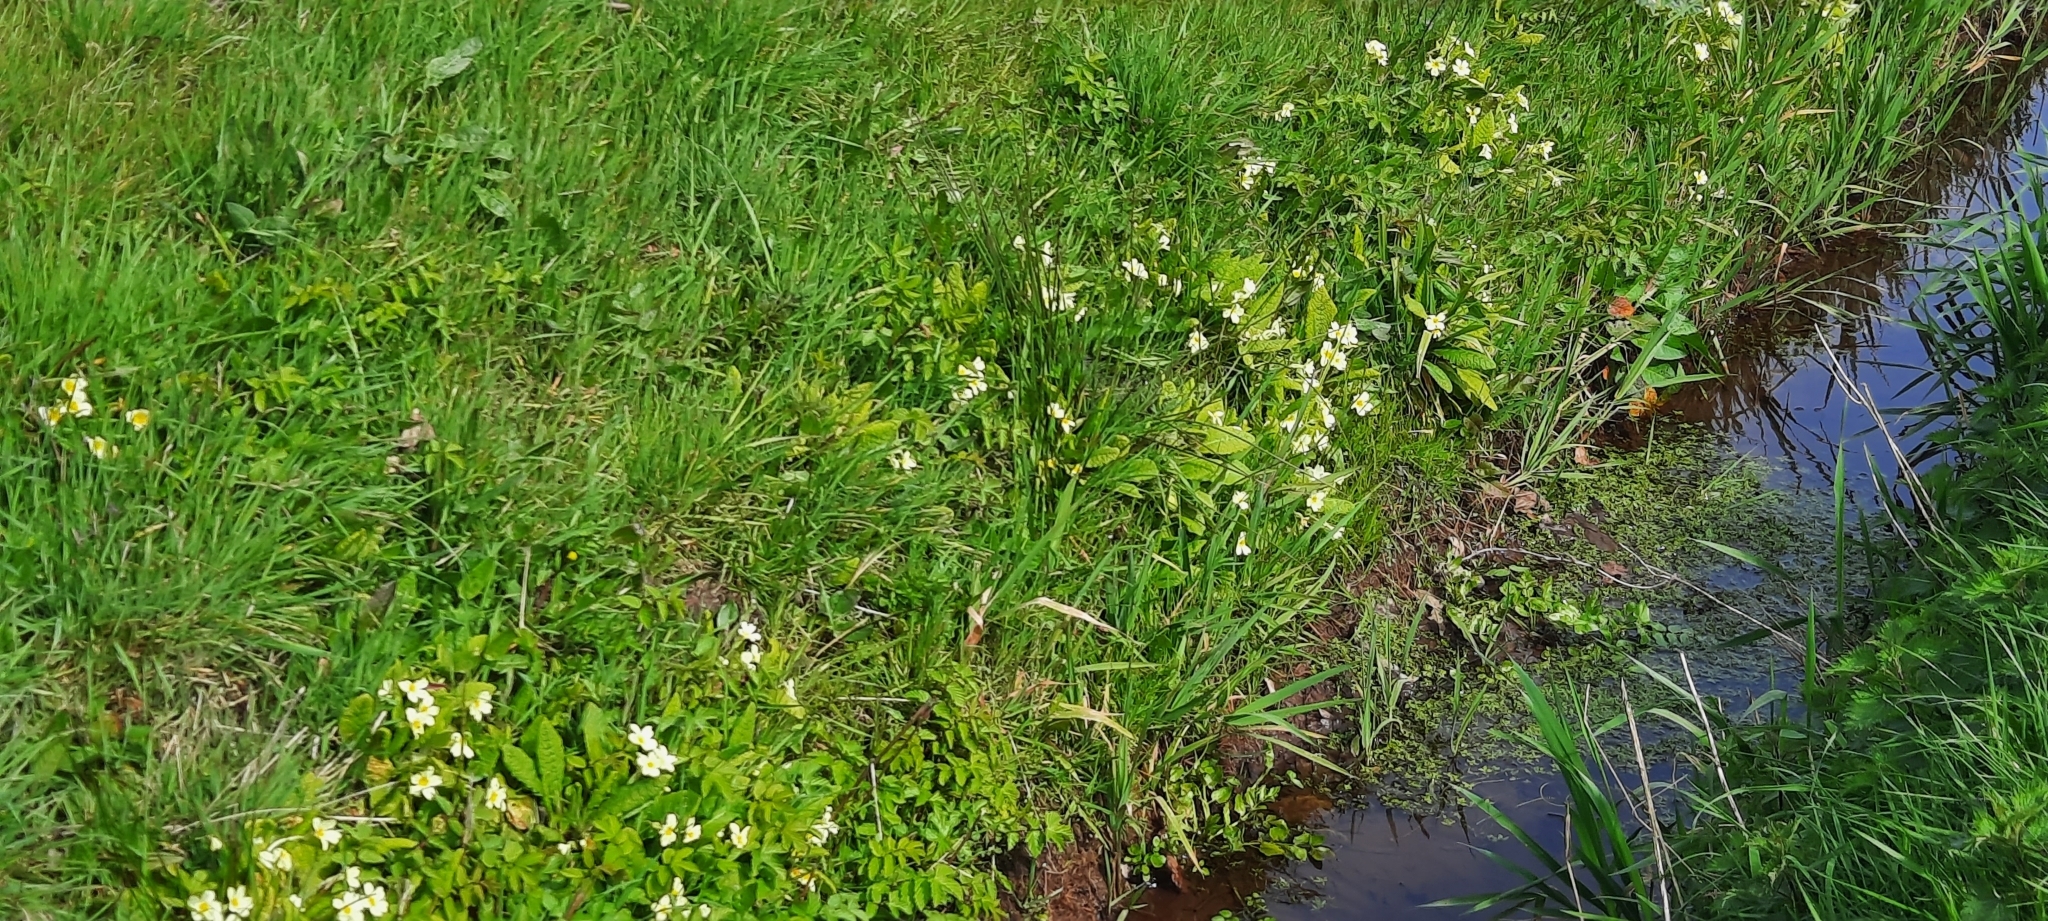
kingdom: Plantae
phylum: Tracheophyta
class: Magnoliopsida
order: Ericales
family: Primulaceae
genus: Primula
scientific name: Primula vulgaris
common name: Primrose
